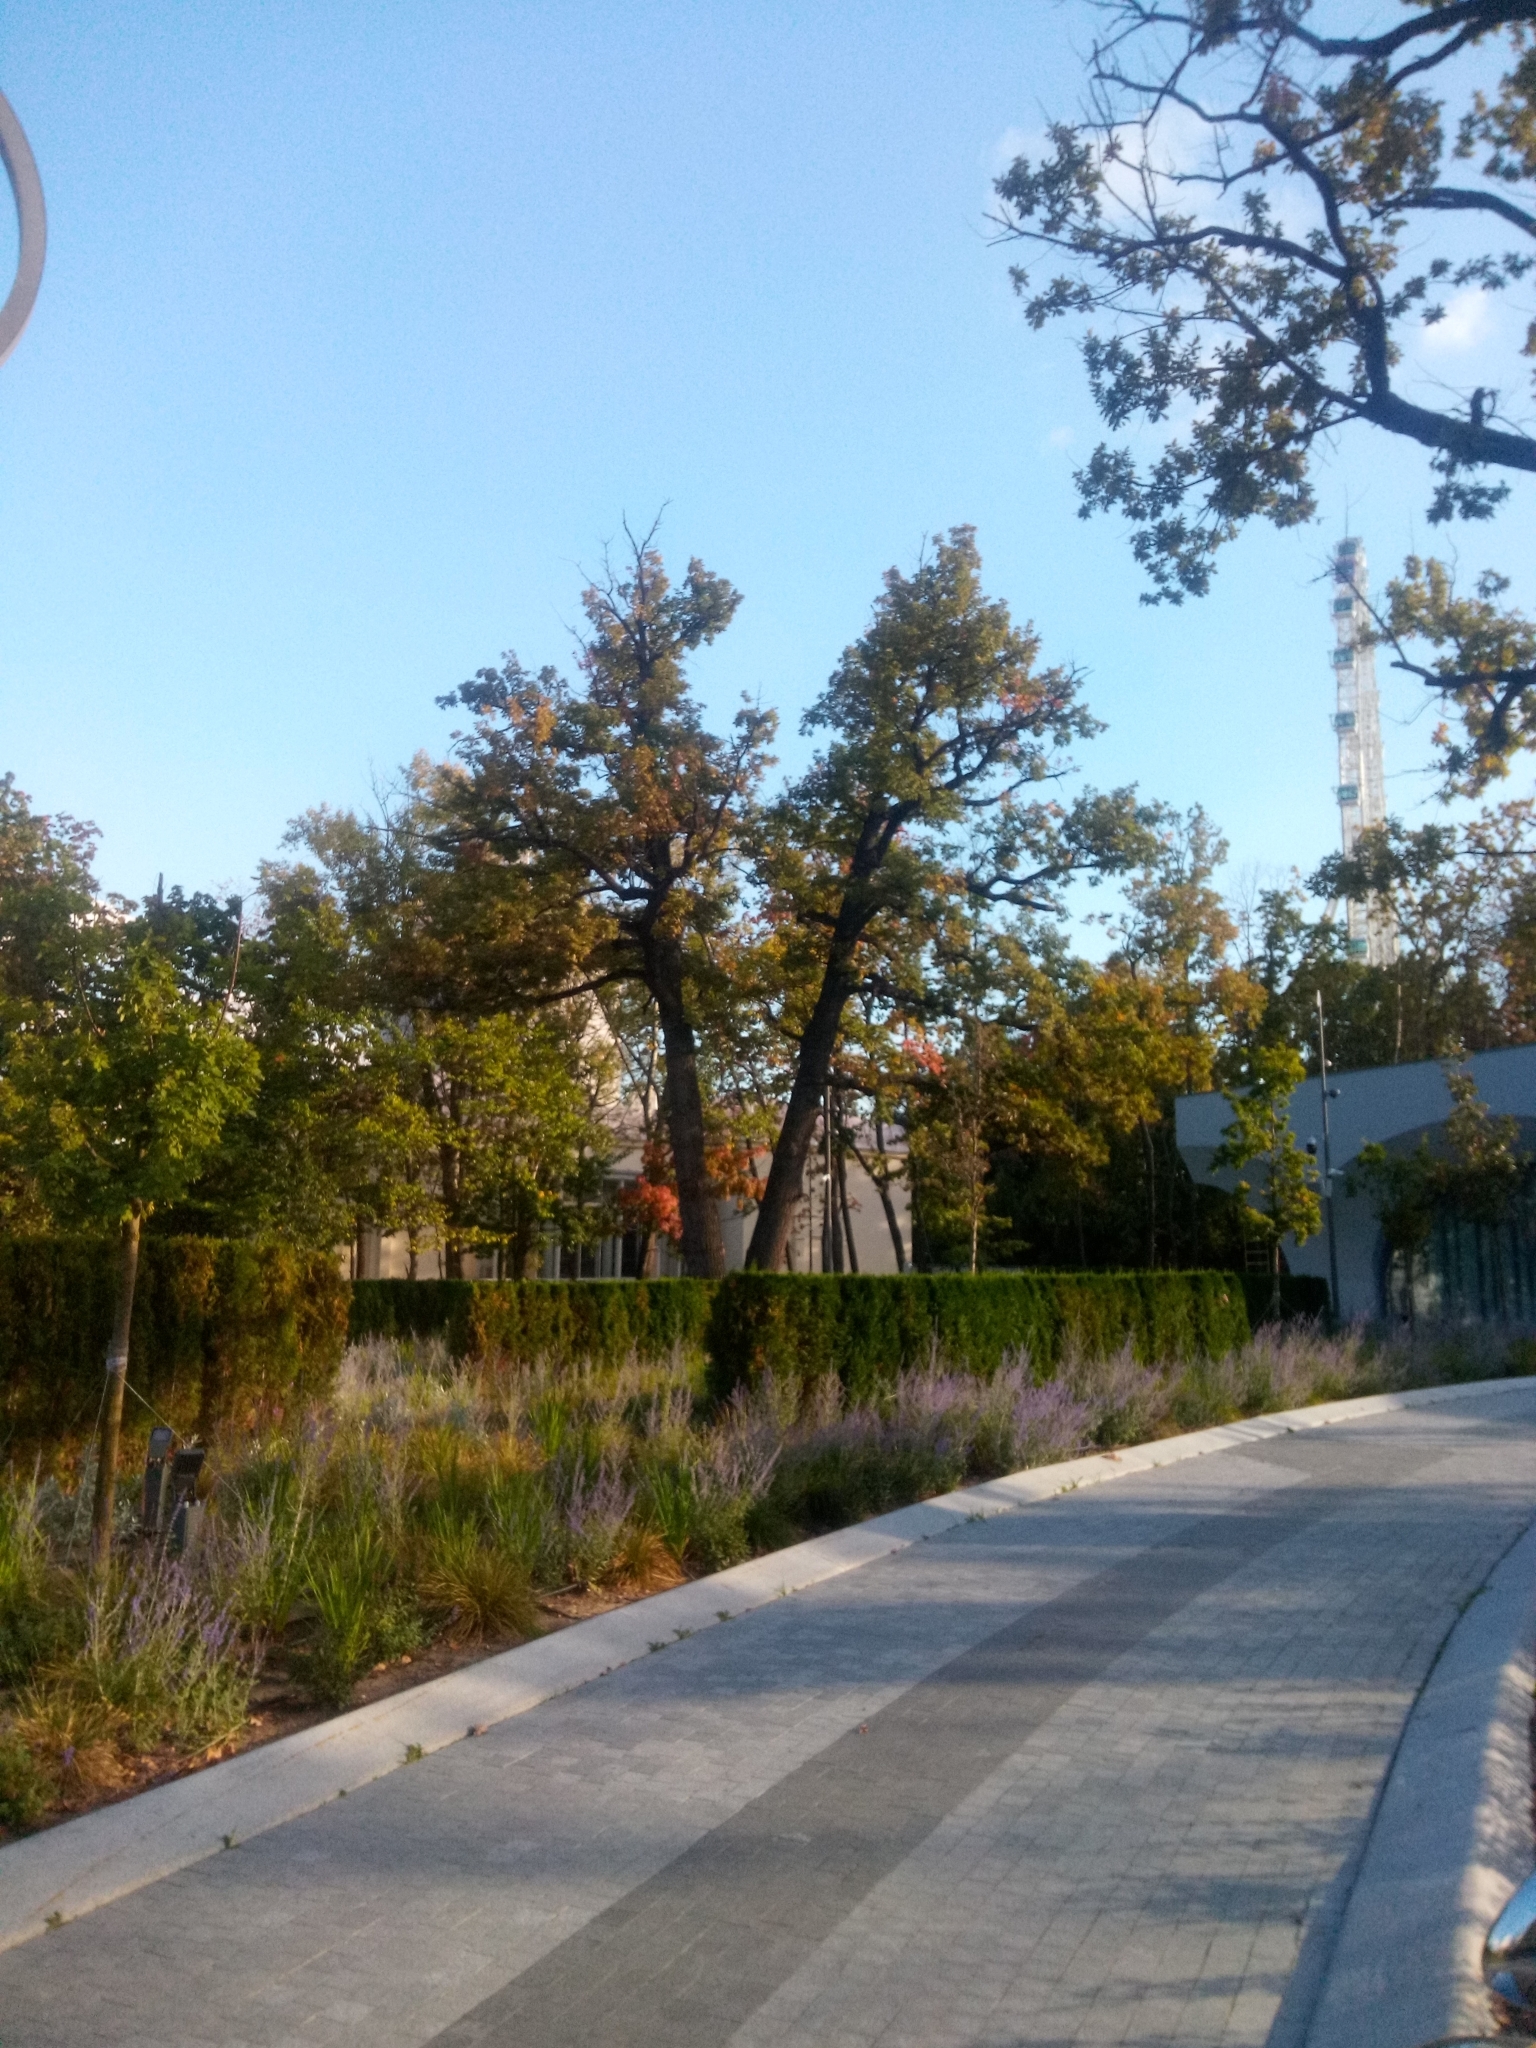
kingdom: Plantae
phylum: Tracheophyta
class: Magnoliopsida
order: Fagales
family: Fagaceae
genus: Quercus
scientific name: Quercus robur
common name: Pedunculate oak
